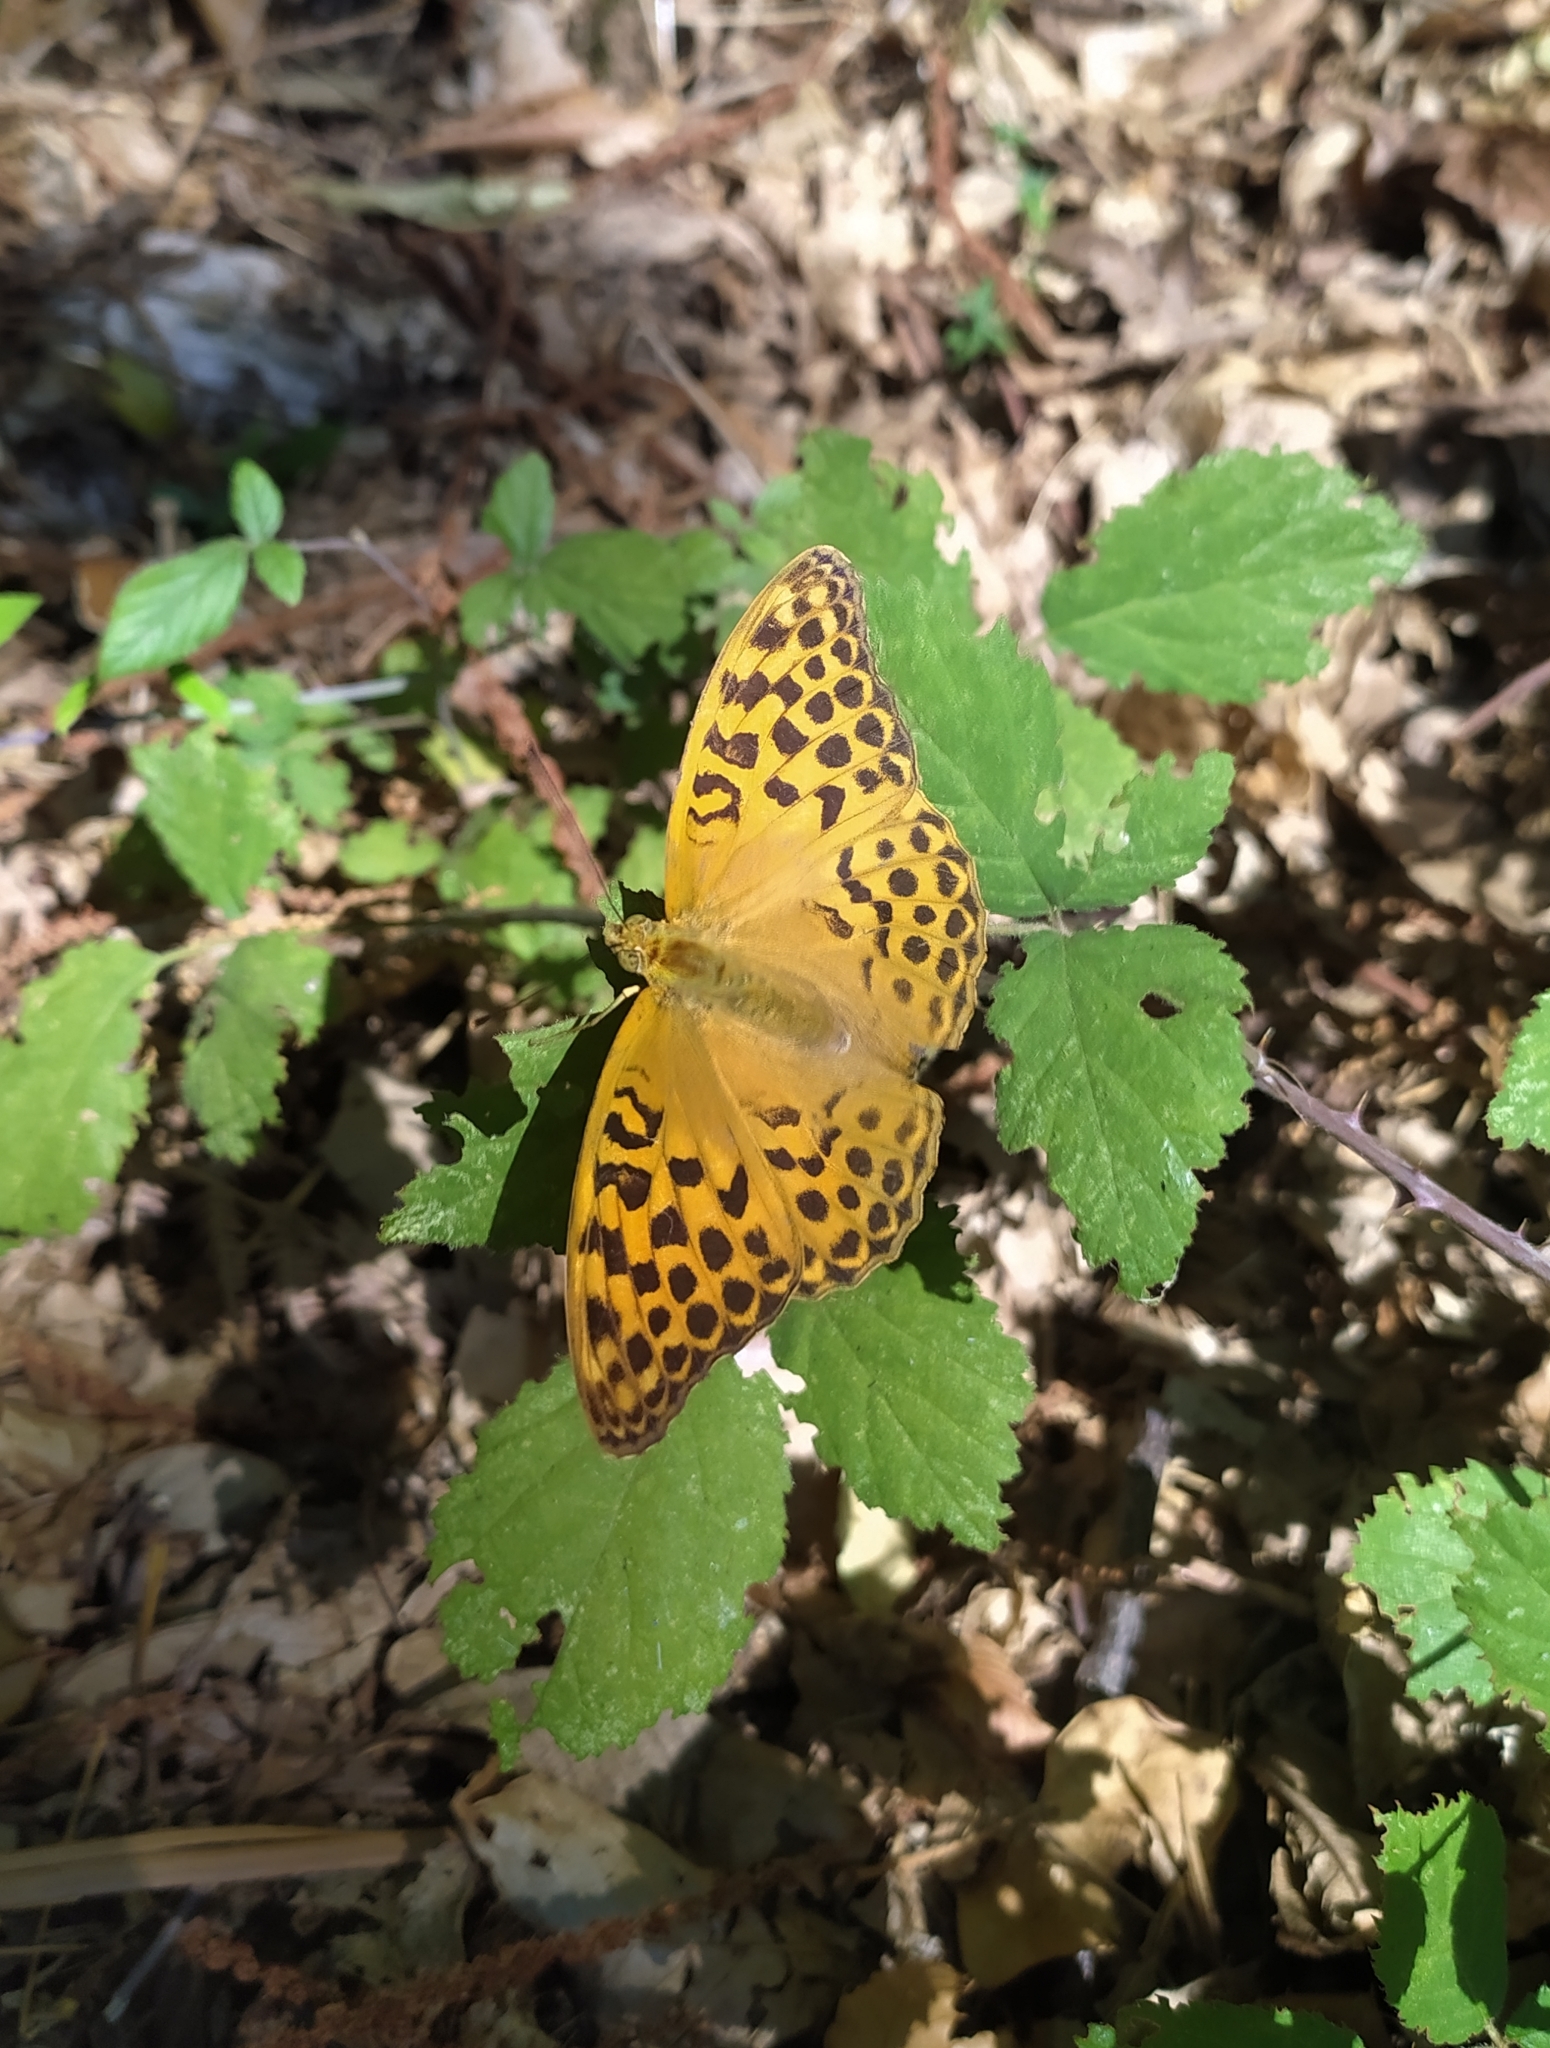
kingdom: Animalia
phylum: Arthropoda
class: Insecta
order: Lepidoptera
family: Nymphalidae
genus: Argynnis
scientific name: Argynnis paphia
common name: Silver-washed fritillary
